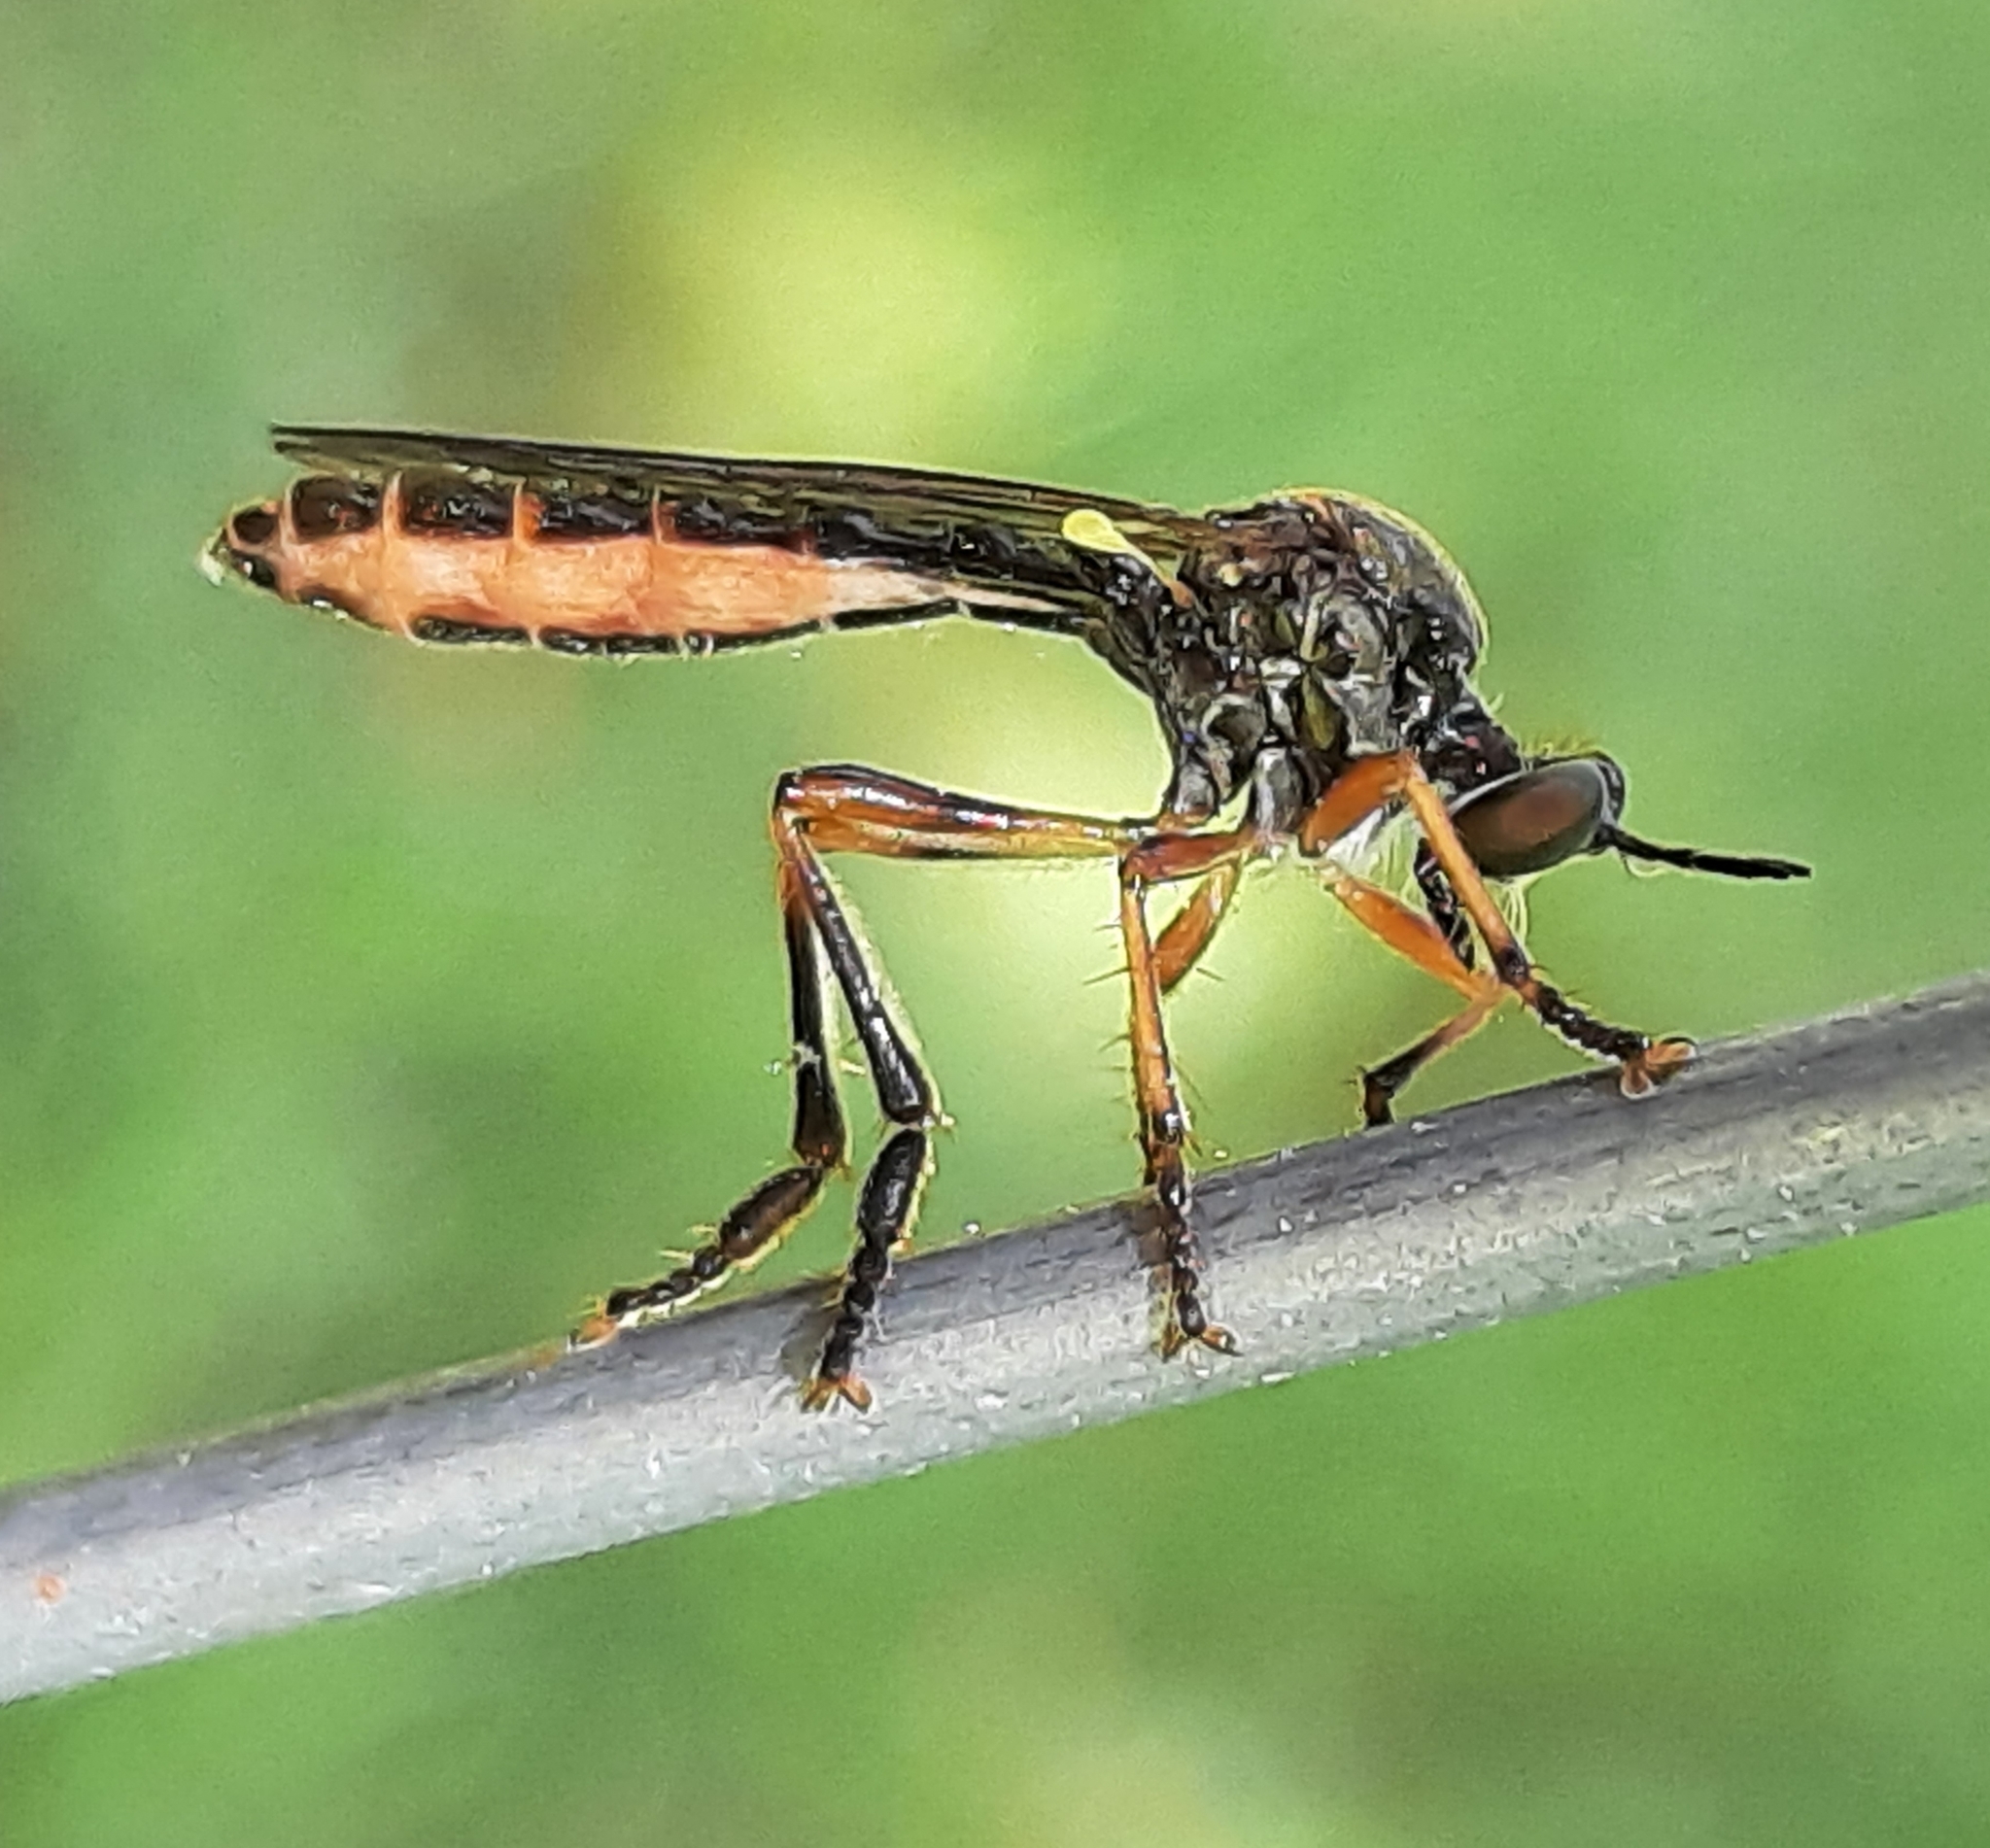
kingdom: Animalia
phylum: Arthropoda
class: Insecta
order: Diptera
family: Asilidae
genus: Dioctria
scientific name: Dioctria hyalipennis
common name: Stripe-legged robberfly
